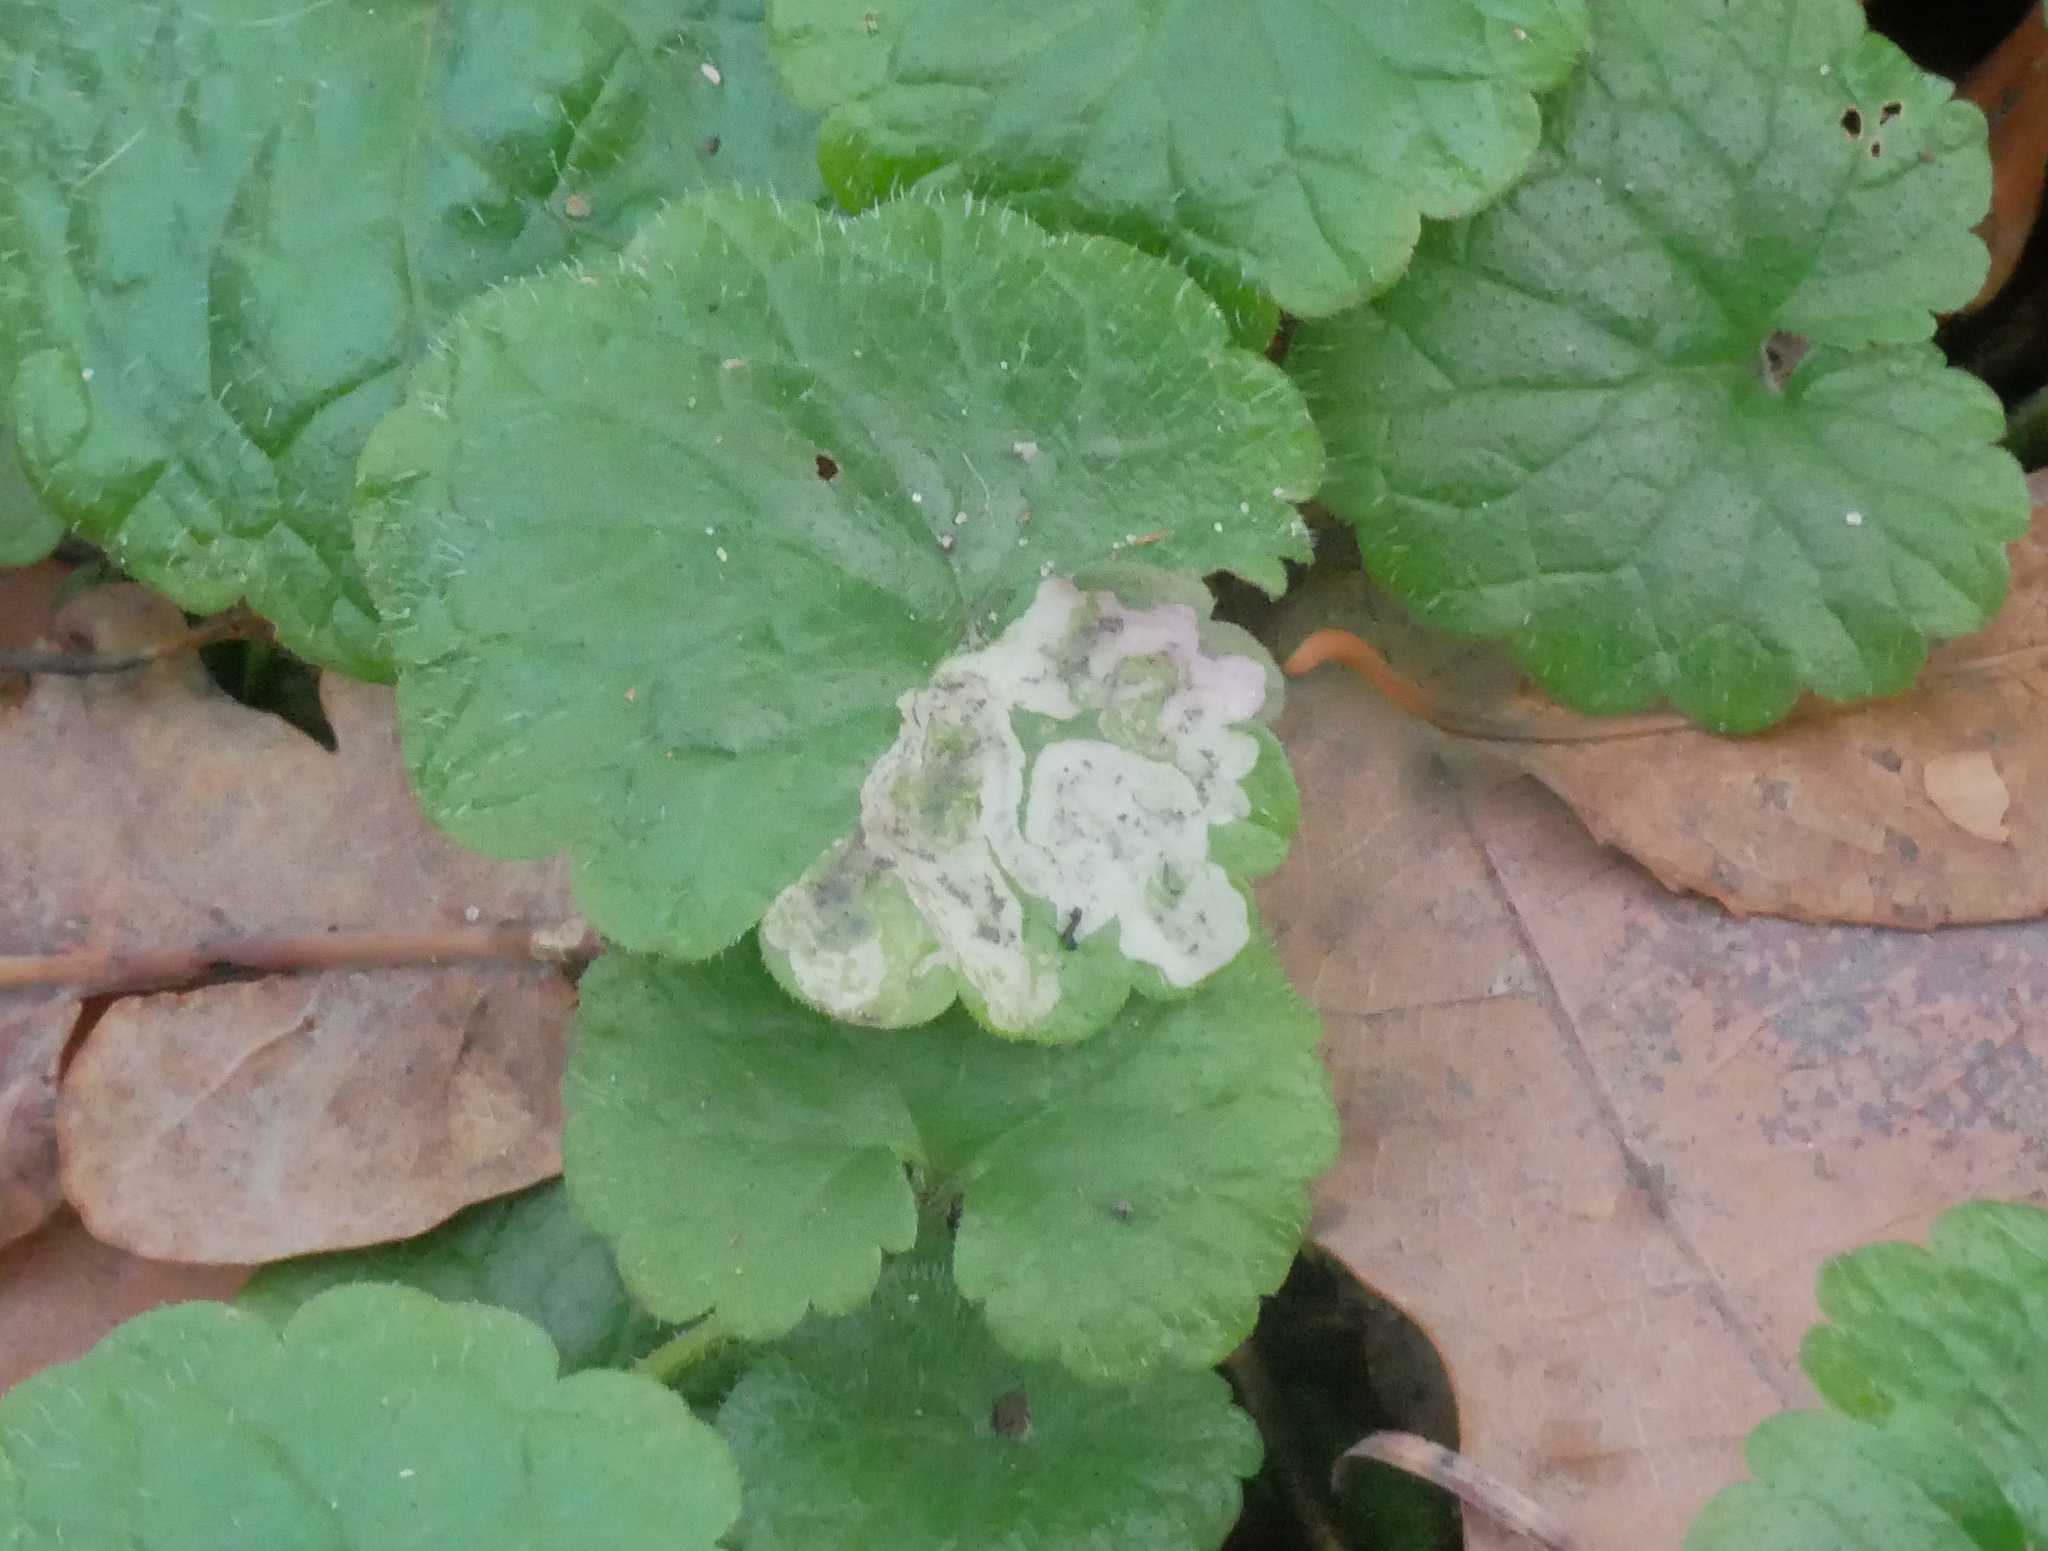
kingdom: Animalia
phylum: Arthropoda
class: Insecta
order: Diptera
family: Agromyzidae
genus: Phytomyza
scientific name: Phytomyza glechomae
